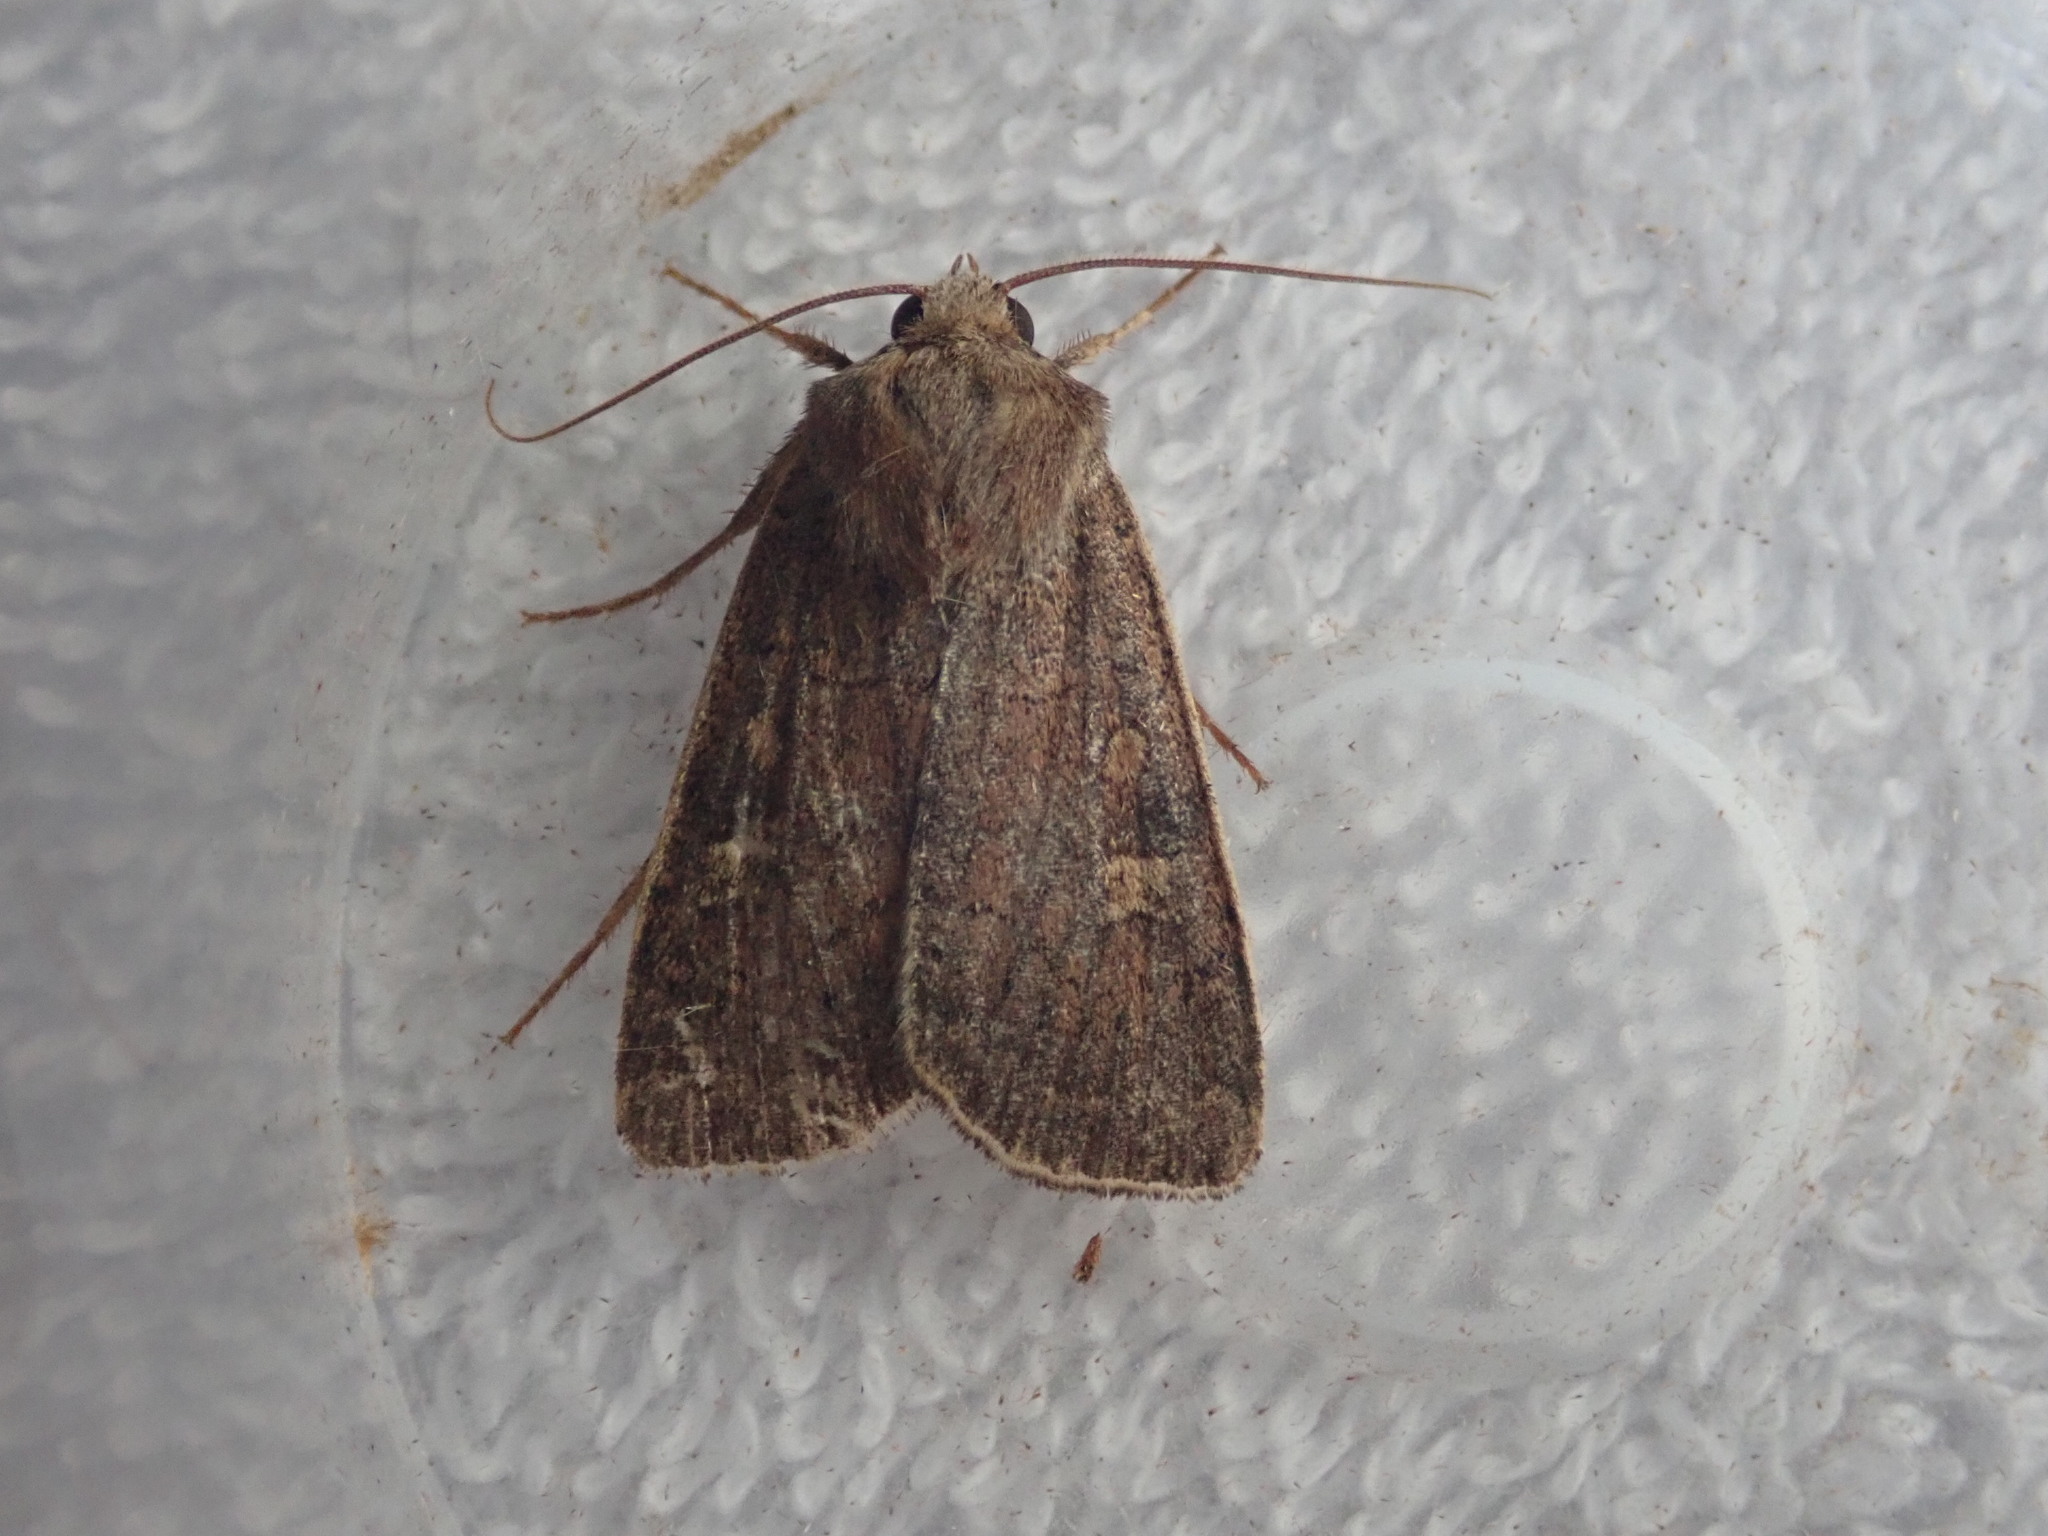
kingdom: Animalia
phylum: Arthropoda
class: Insecta
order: Lepidoptera
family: Noctuidae
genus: Xestia
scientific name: Xestia xanthographa
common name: Square-spot rustic
